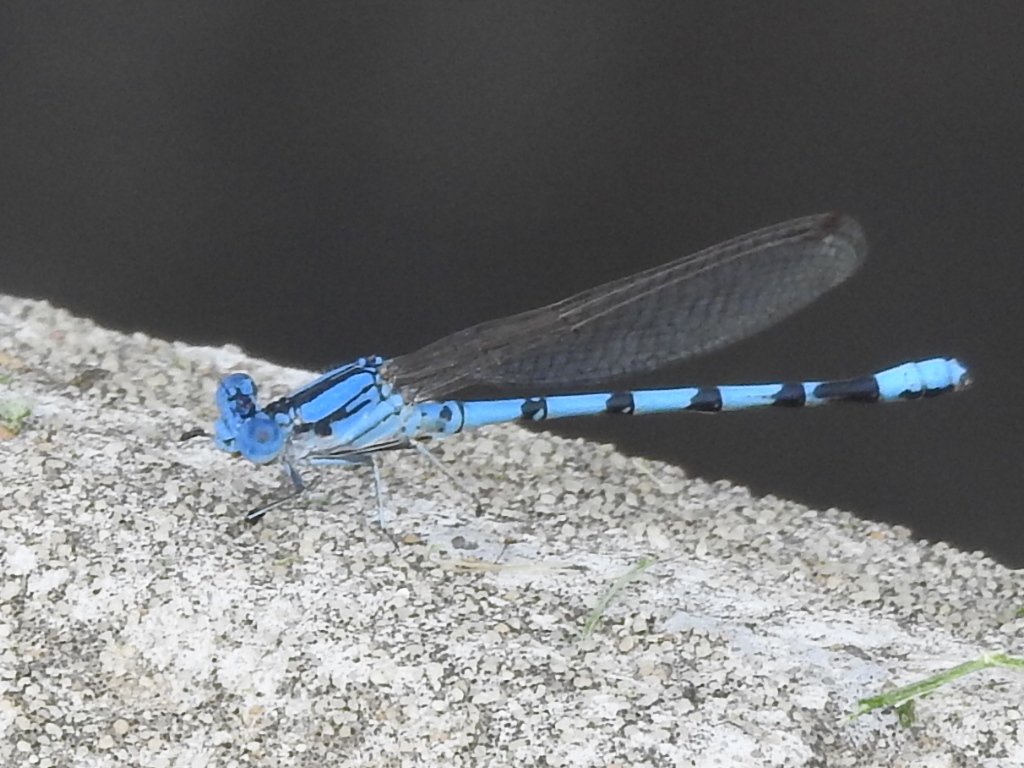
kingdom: Animalia
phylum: Arthropoda
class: Insecta
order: Odonata
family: Coenagrionidae
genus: Argia
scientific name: Argia nahuana
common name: Aztec dancer
